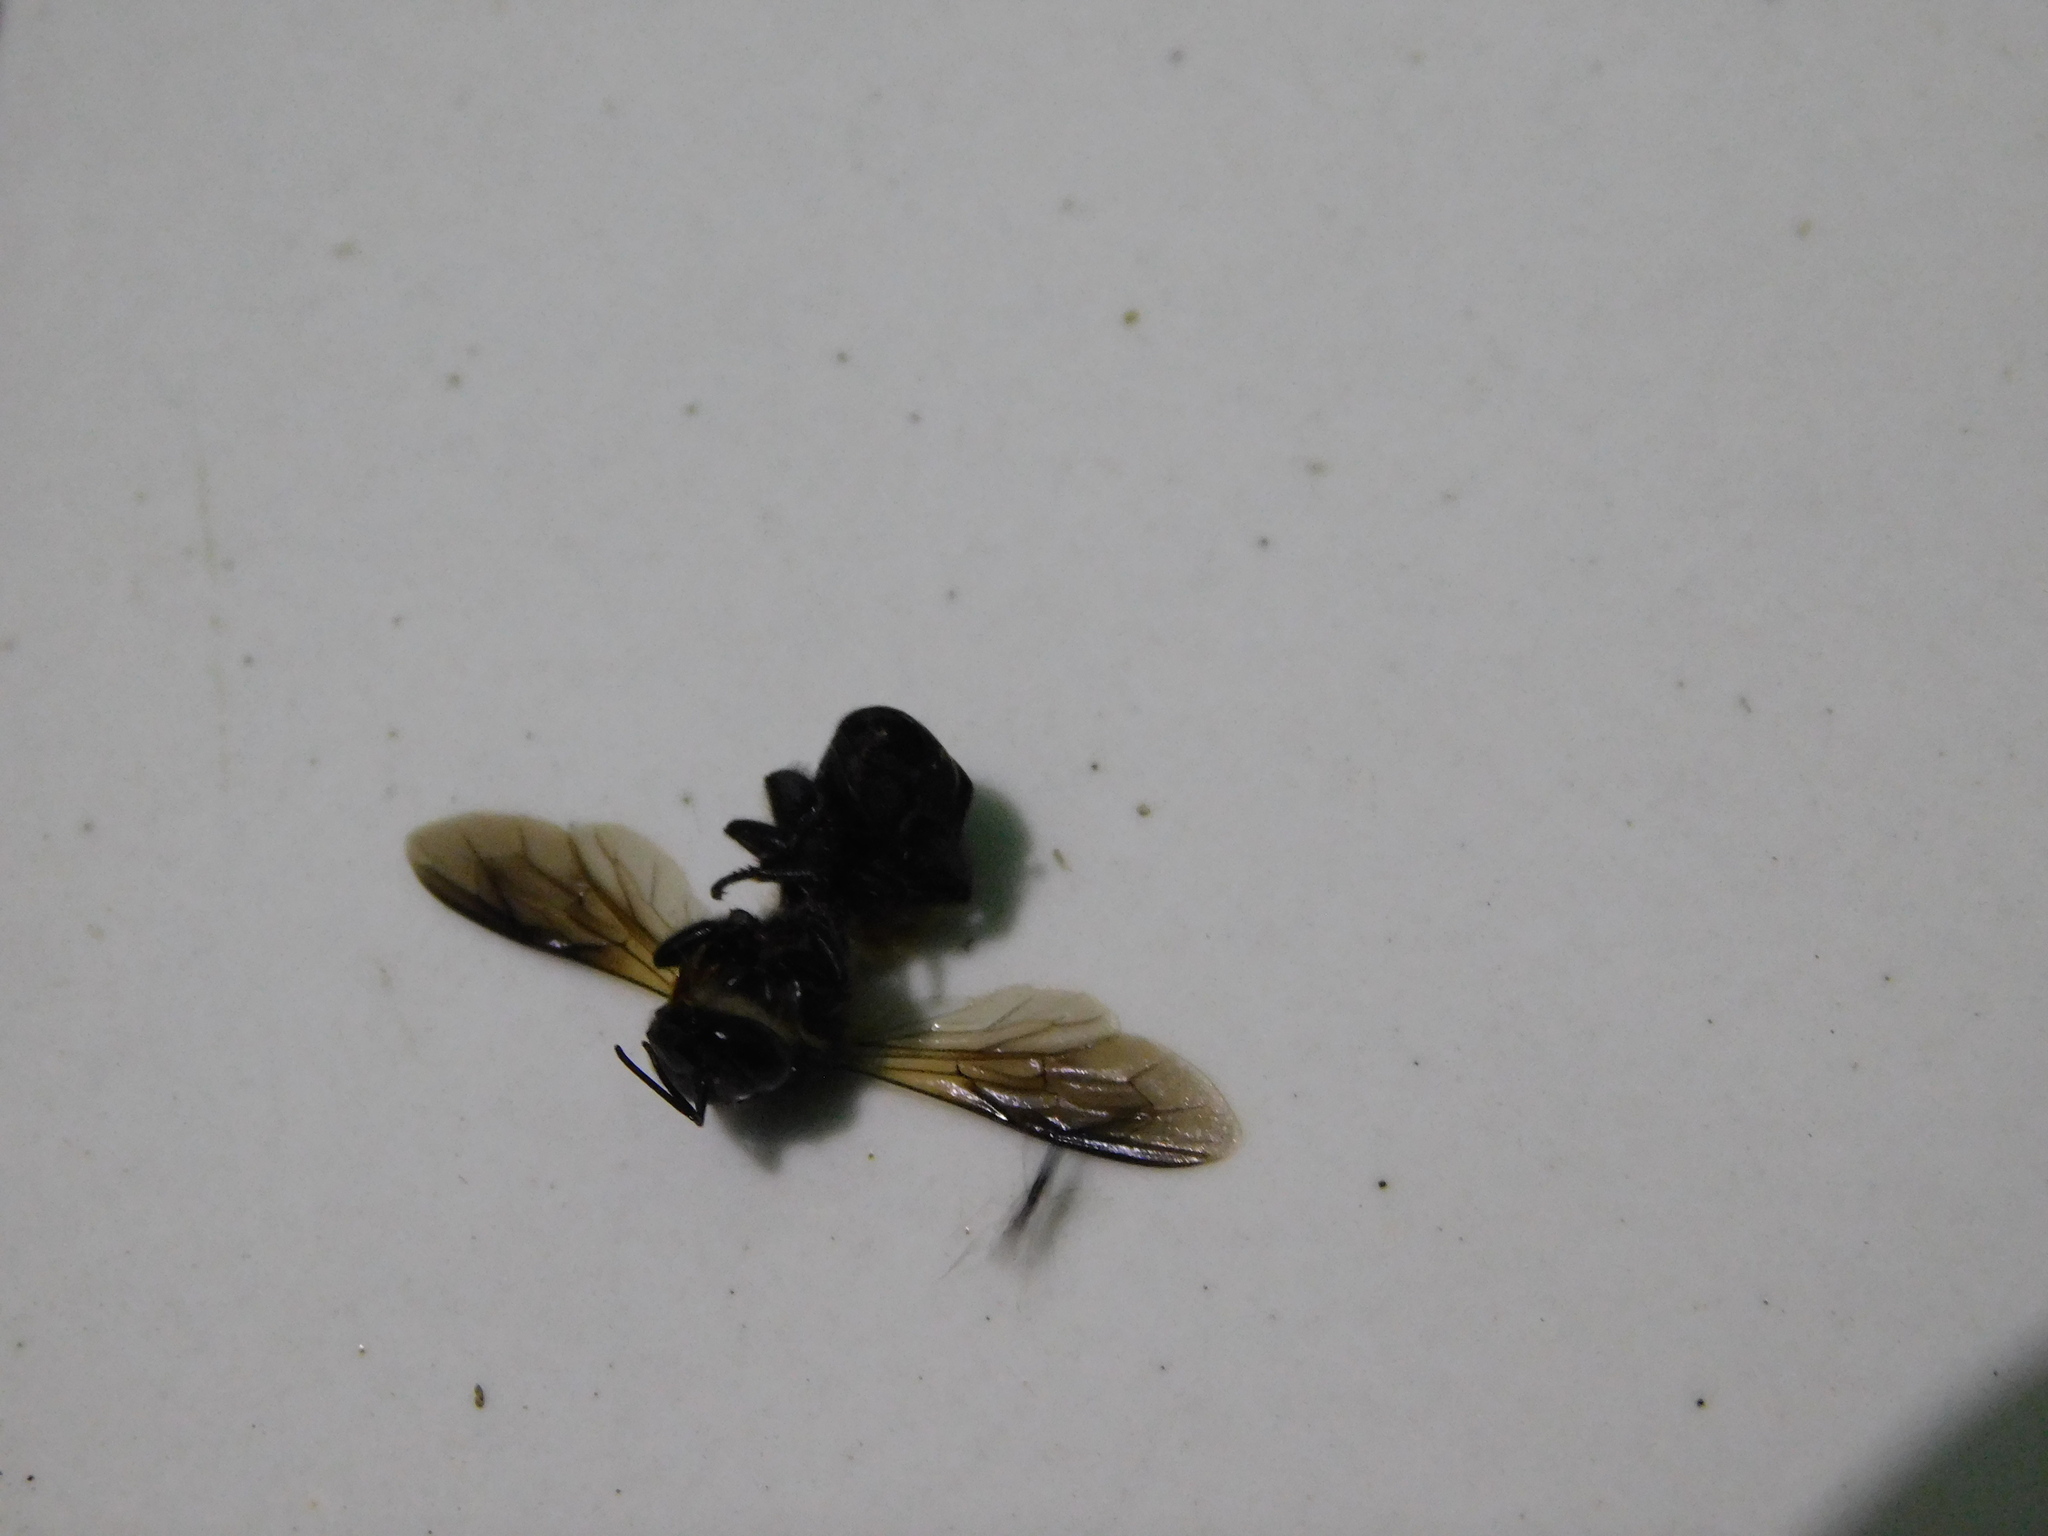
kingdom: Animalia
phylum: Arthropoda
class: Insecta
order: Hymenoptera
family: Apidae
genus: Apis
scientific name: Apis dorsata
